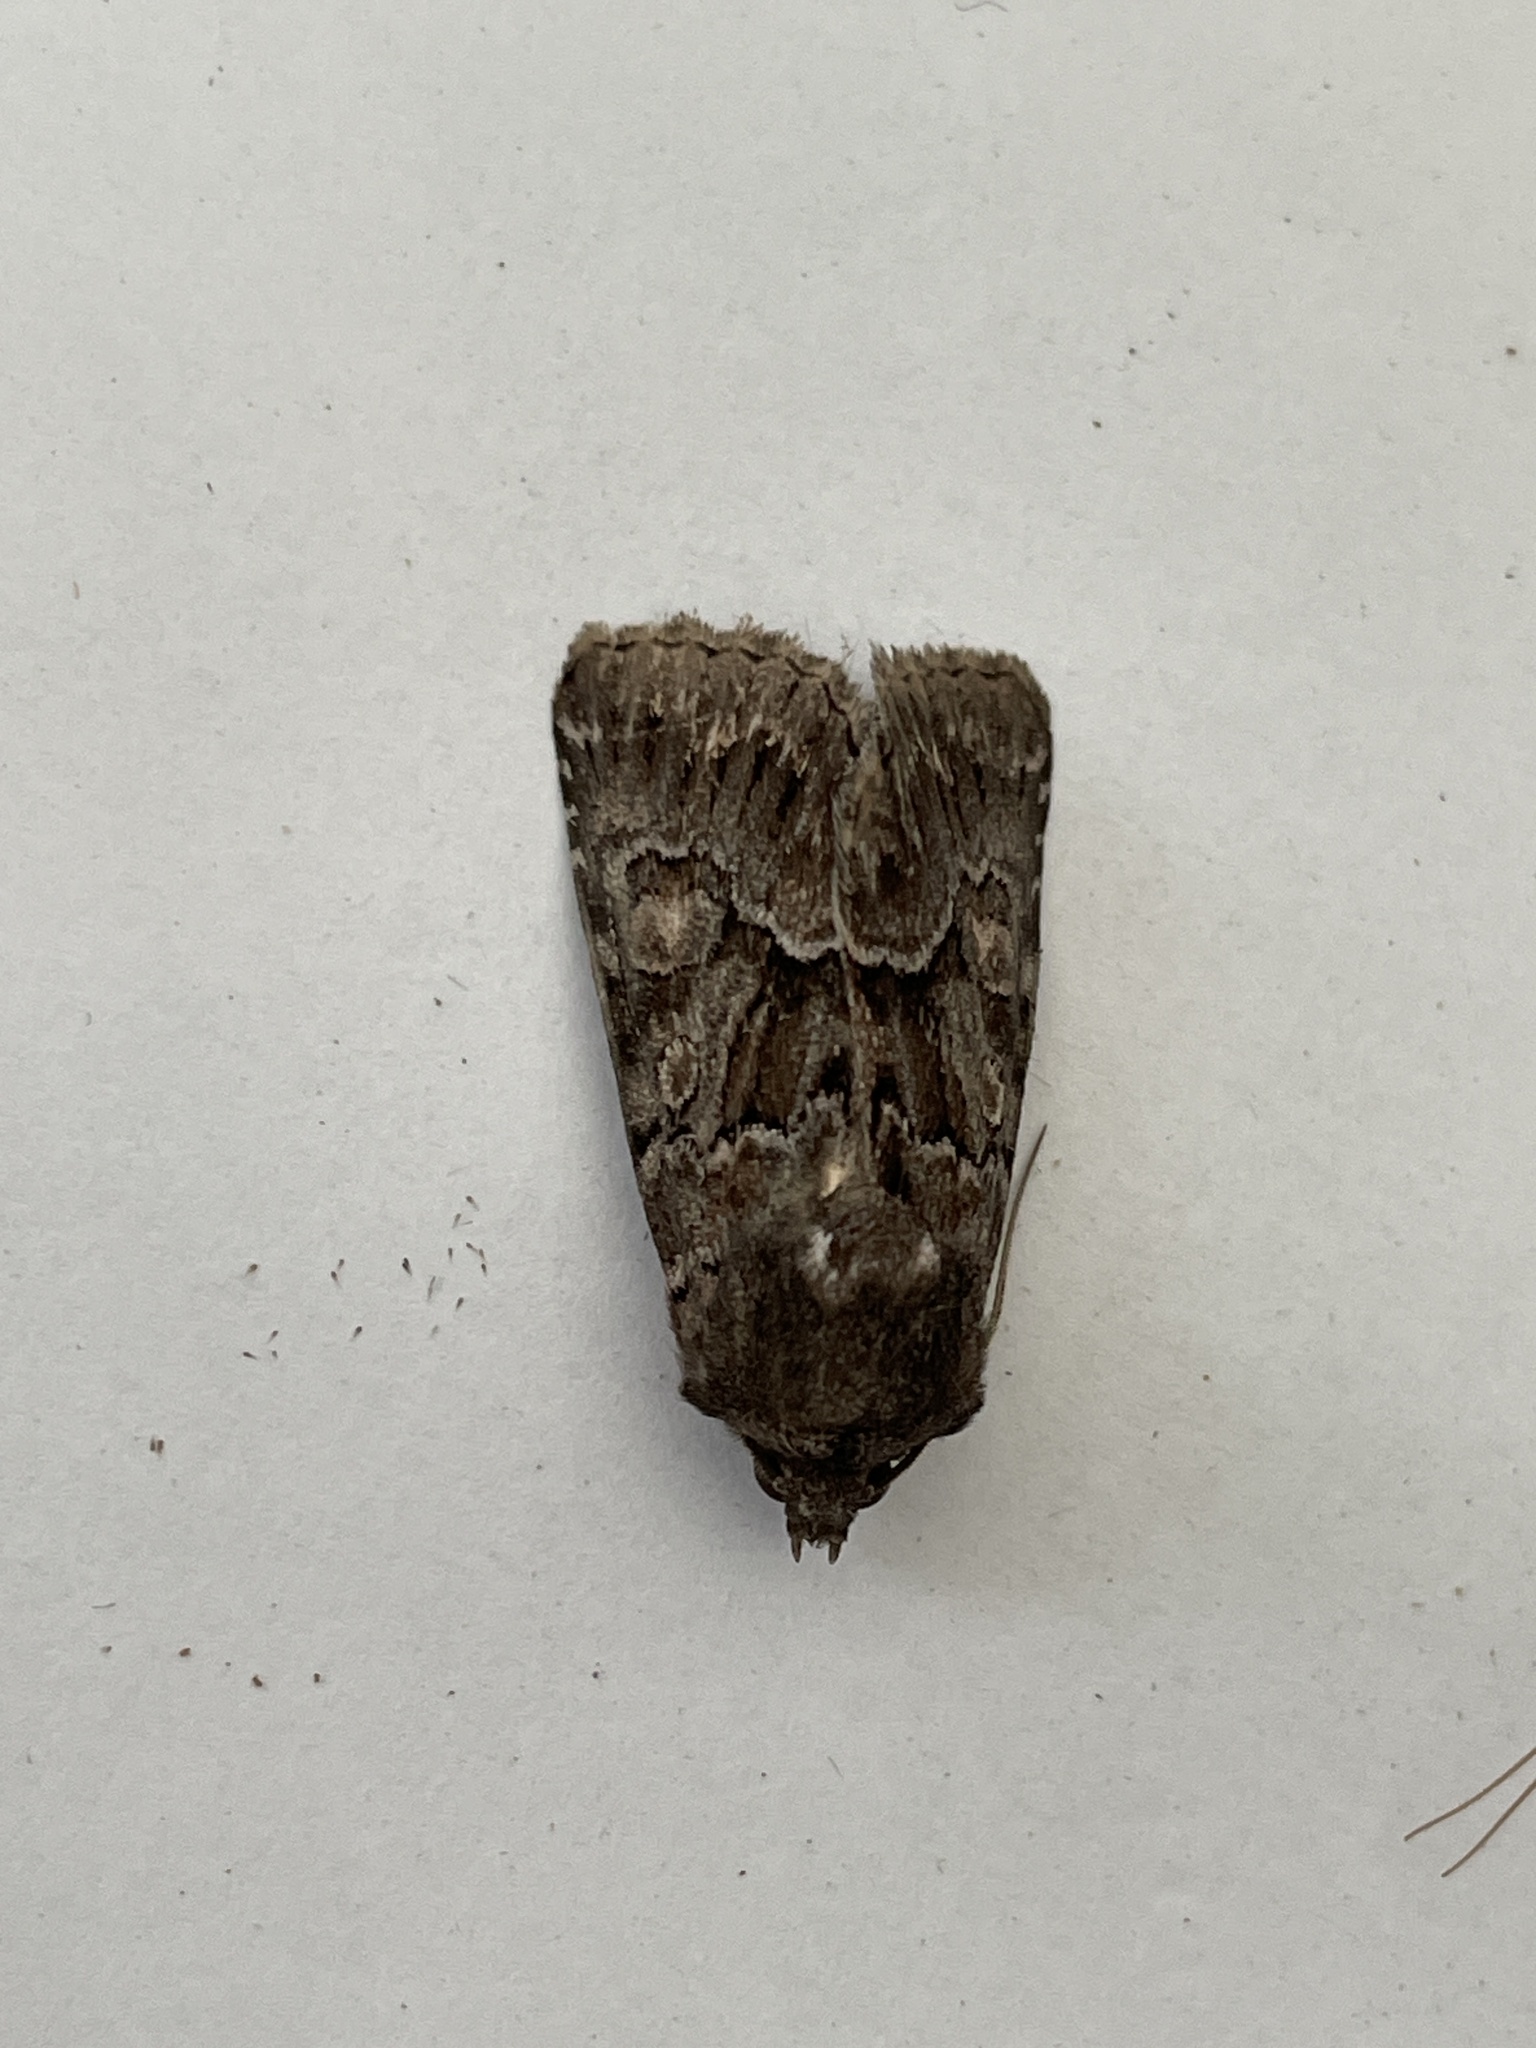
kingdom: Animalia
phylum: Arthropoda
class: Insecta
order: Lepidoptera
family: Noctuidae
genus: Thalpophila
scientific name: Thalpophila matura
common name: Straw underwing
